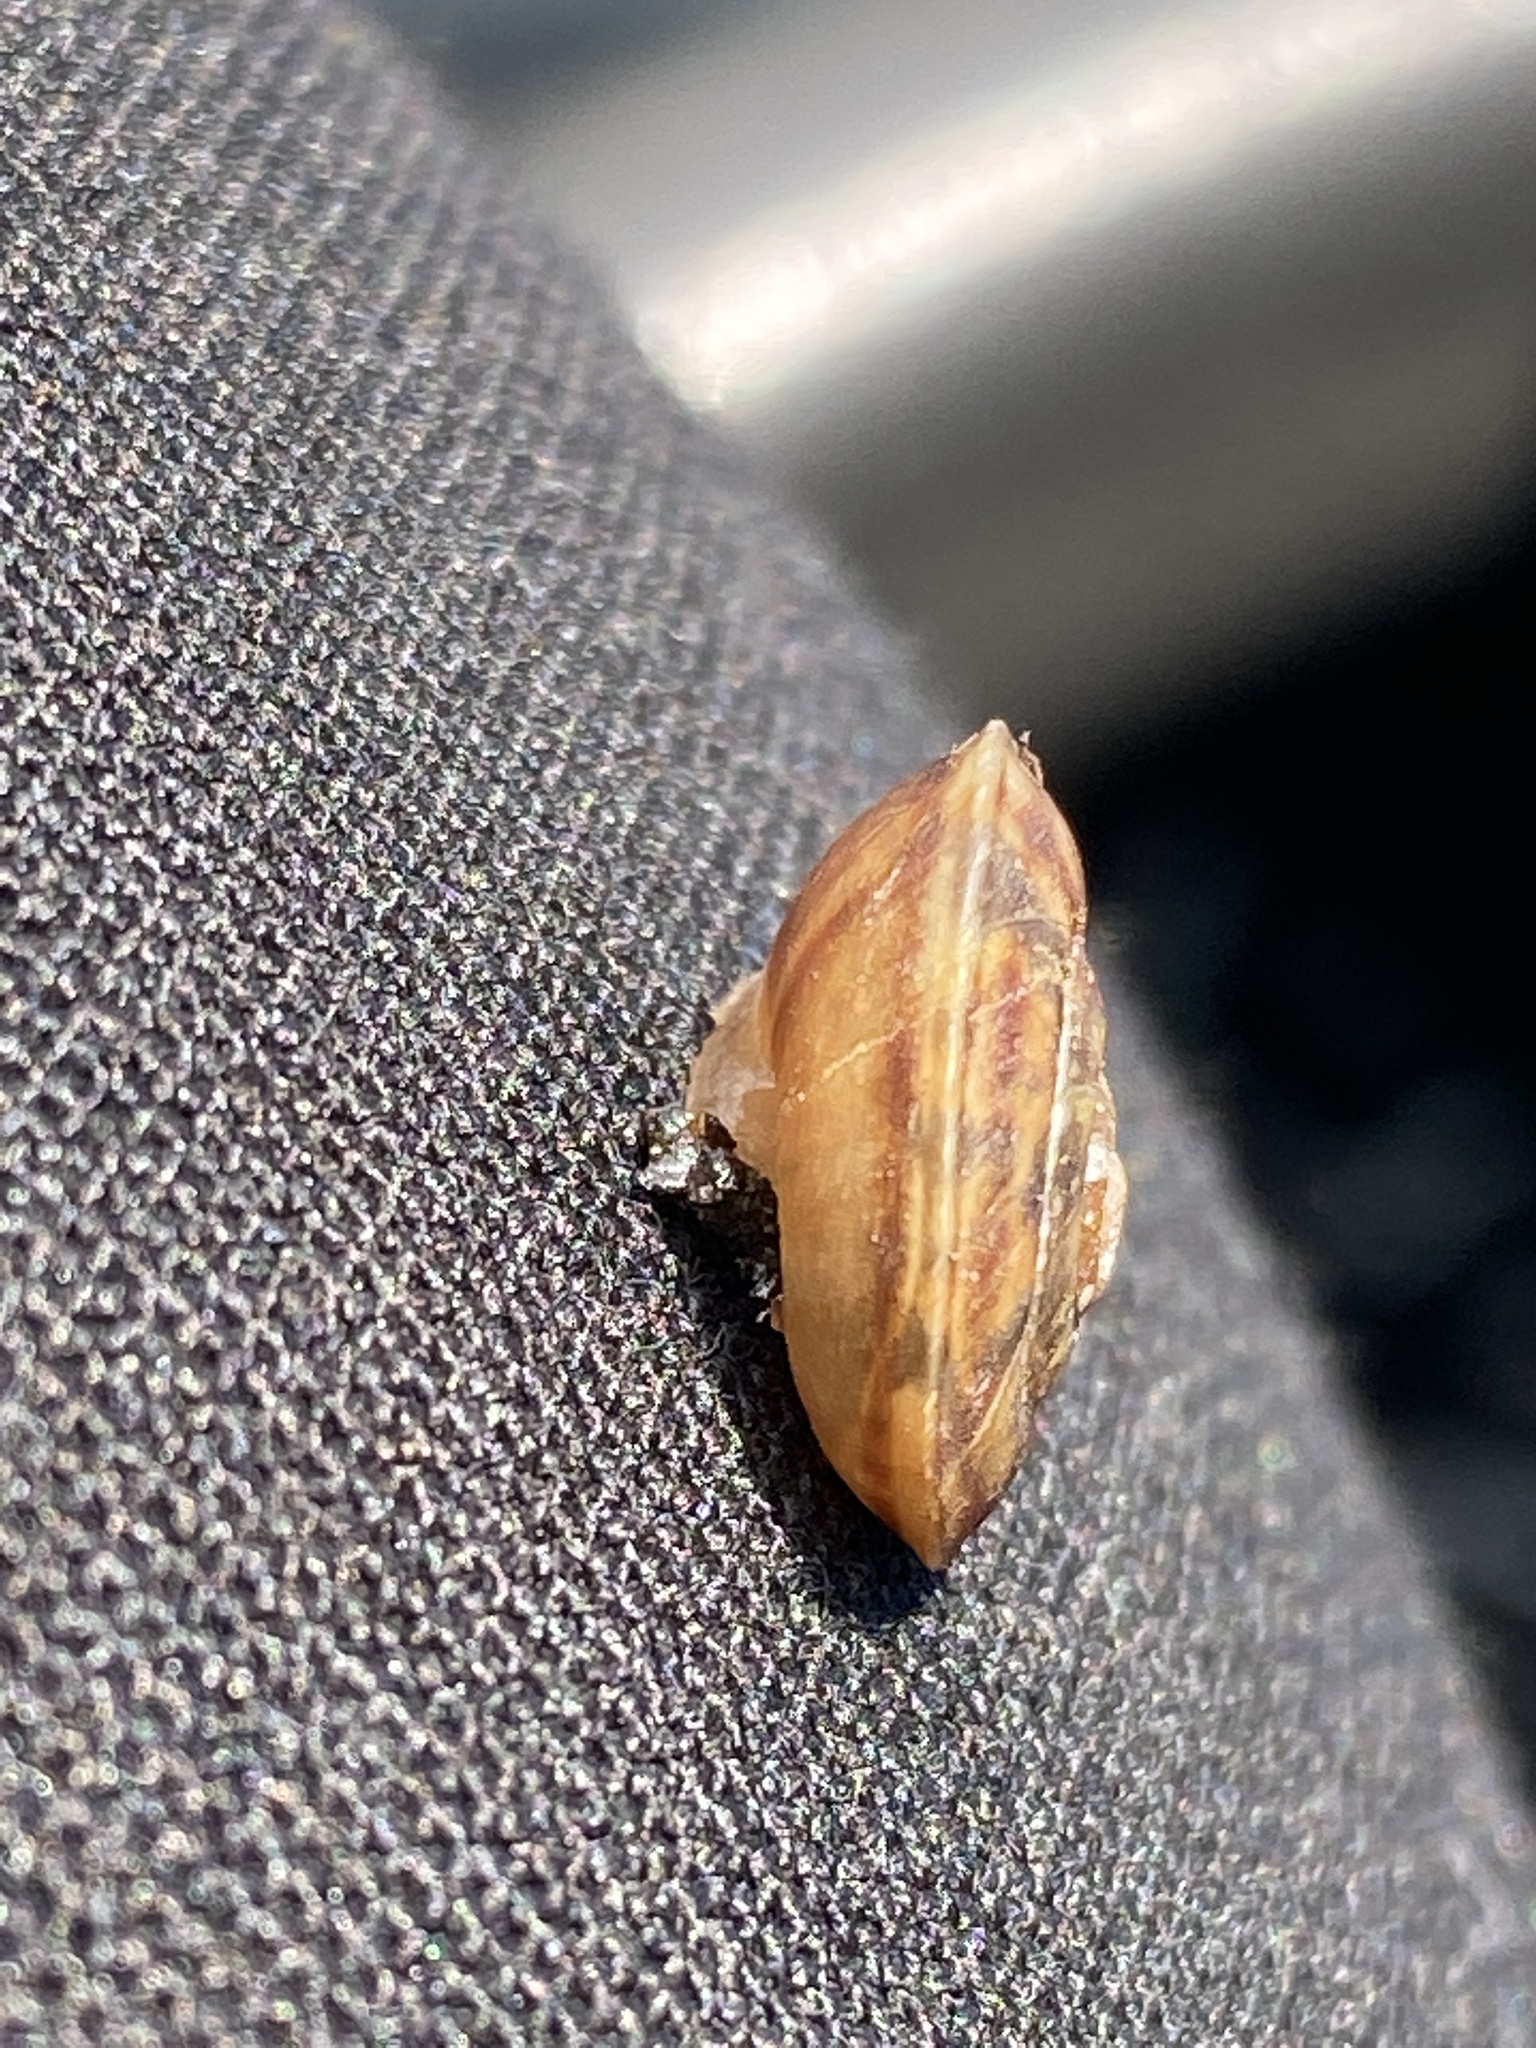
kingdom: Animalia
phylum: Mollusca
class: Gastropoda
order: Stylommatophora
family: Helicidae
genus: Helicigona
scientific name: Helicigona lapicida
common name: Lapidary snail
